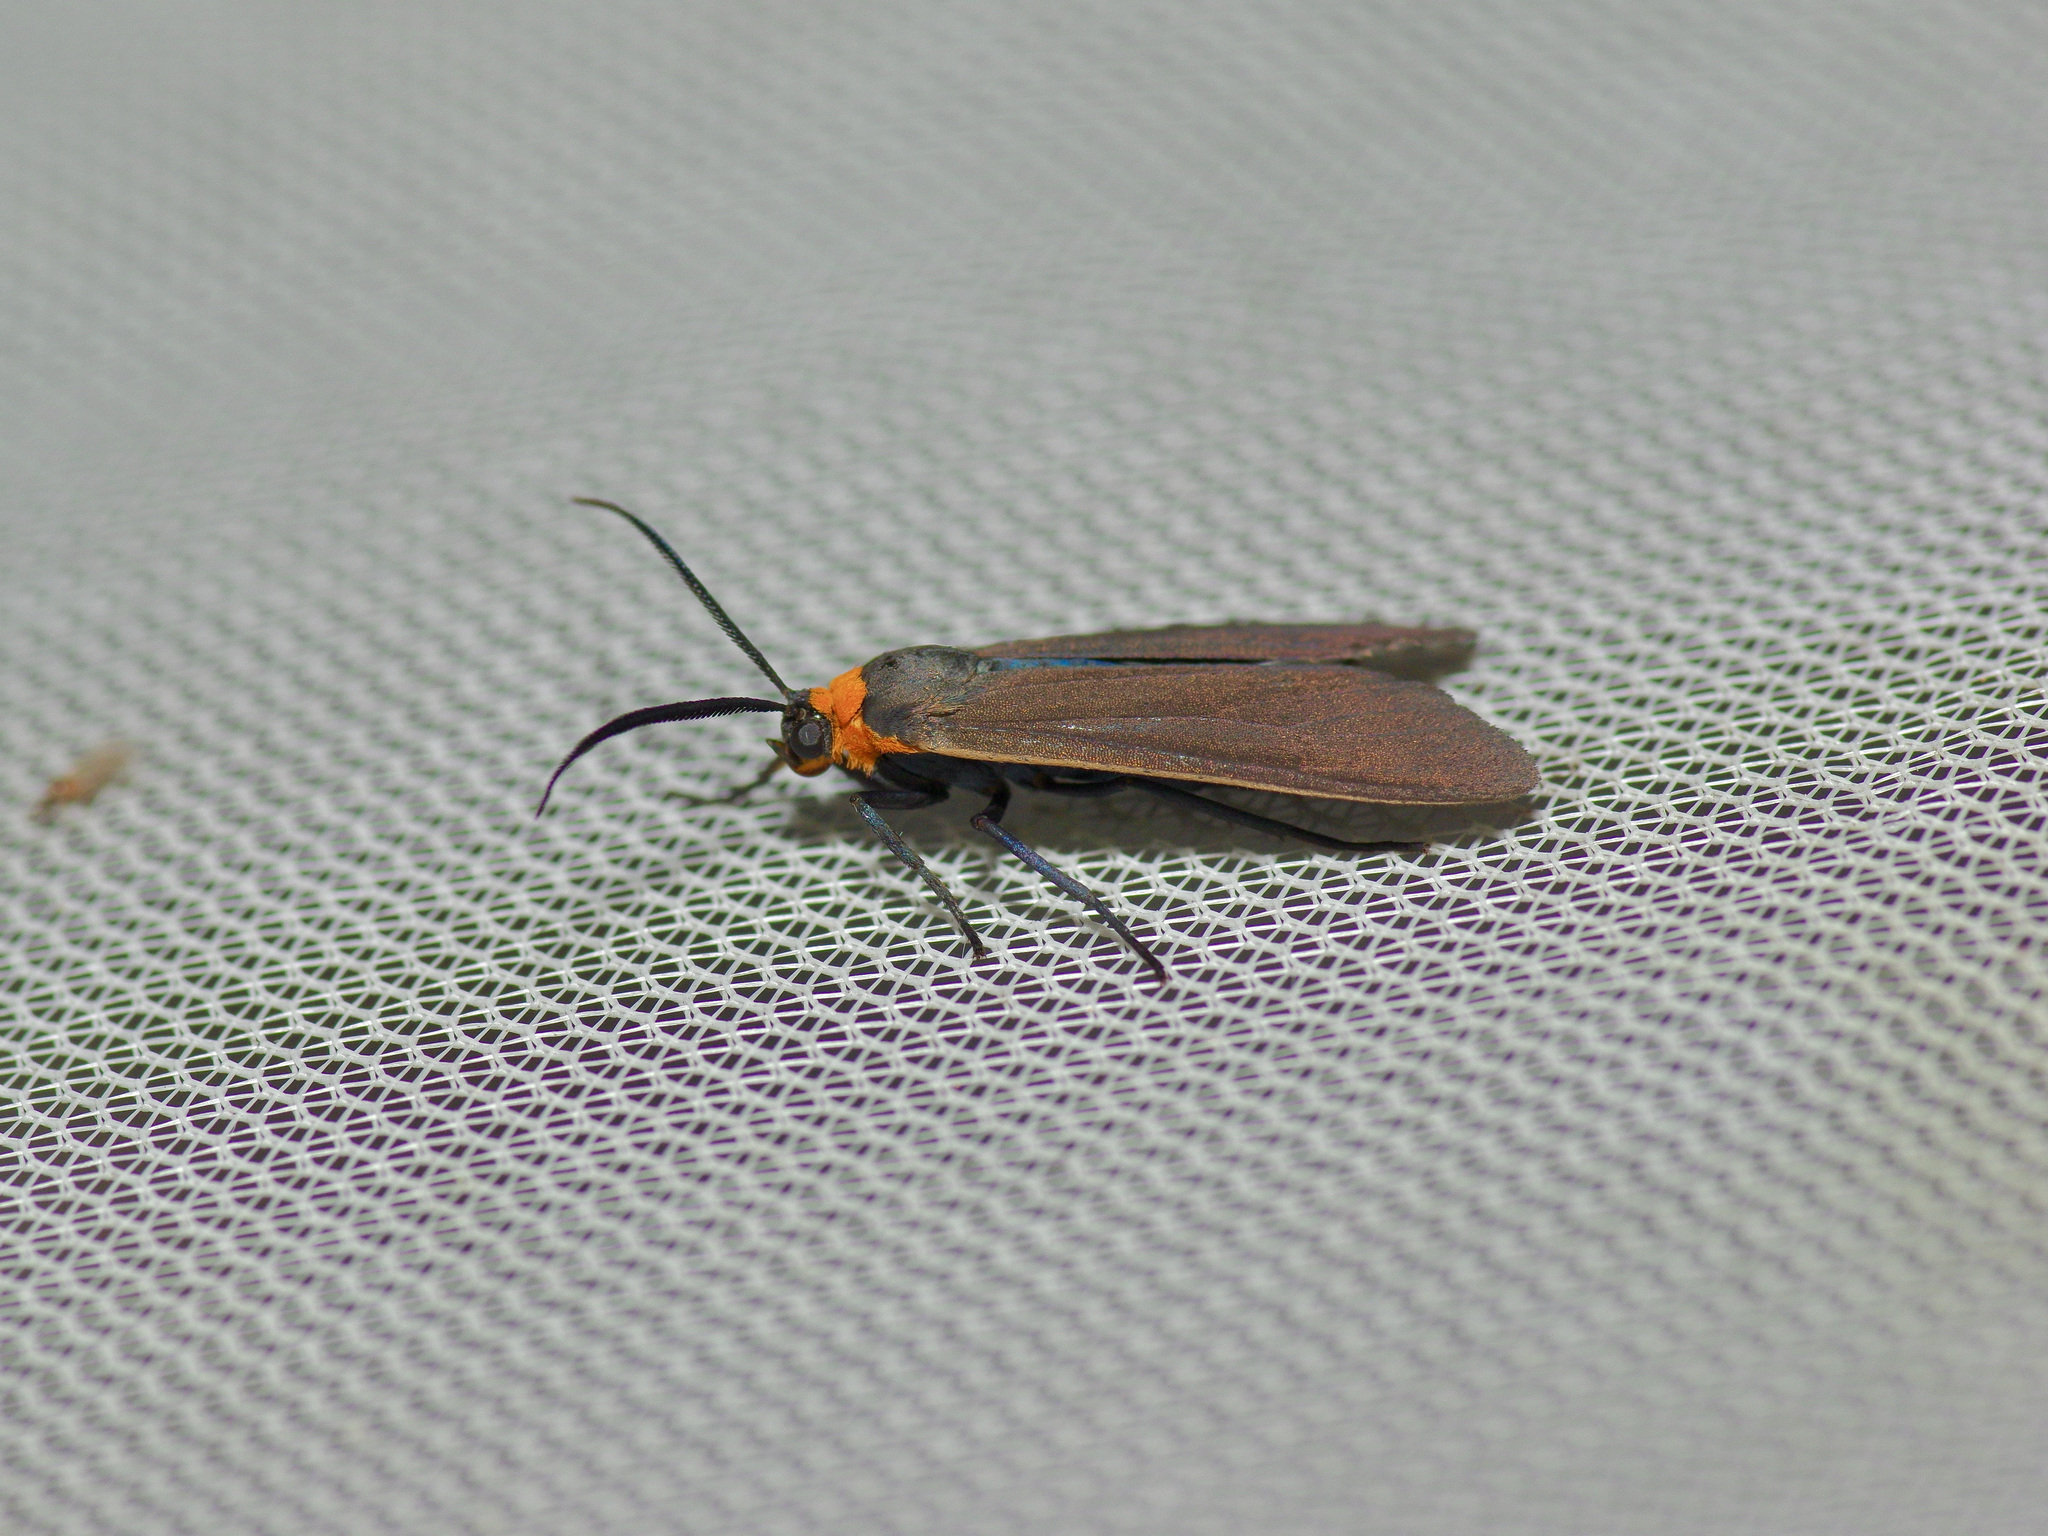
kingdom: Animalia
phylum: Arthropoda
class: Insecta
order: Lepidoptera
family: Erebidae
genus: Cisseps
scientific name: Cisseps fulvicollis
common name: Yellow-collared scape moth
